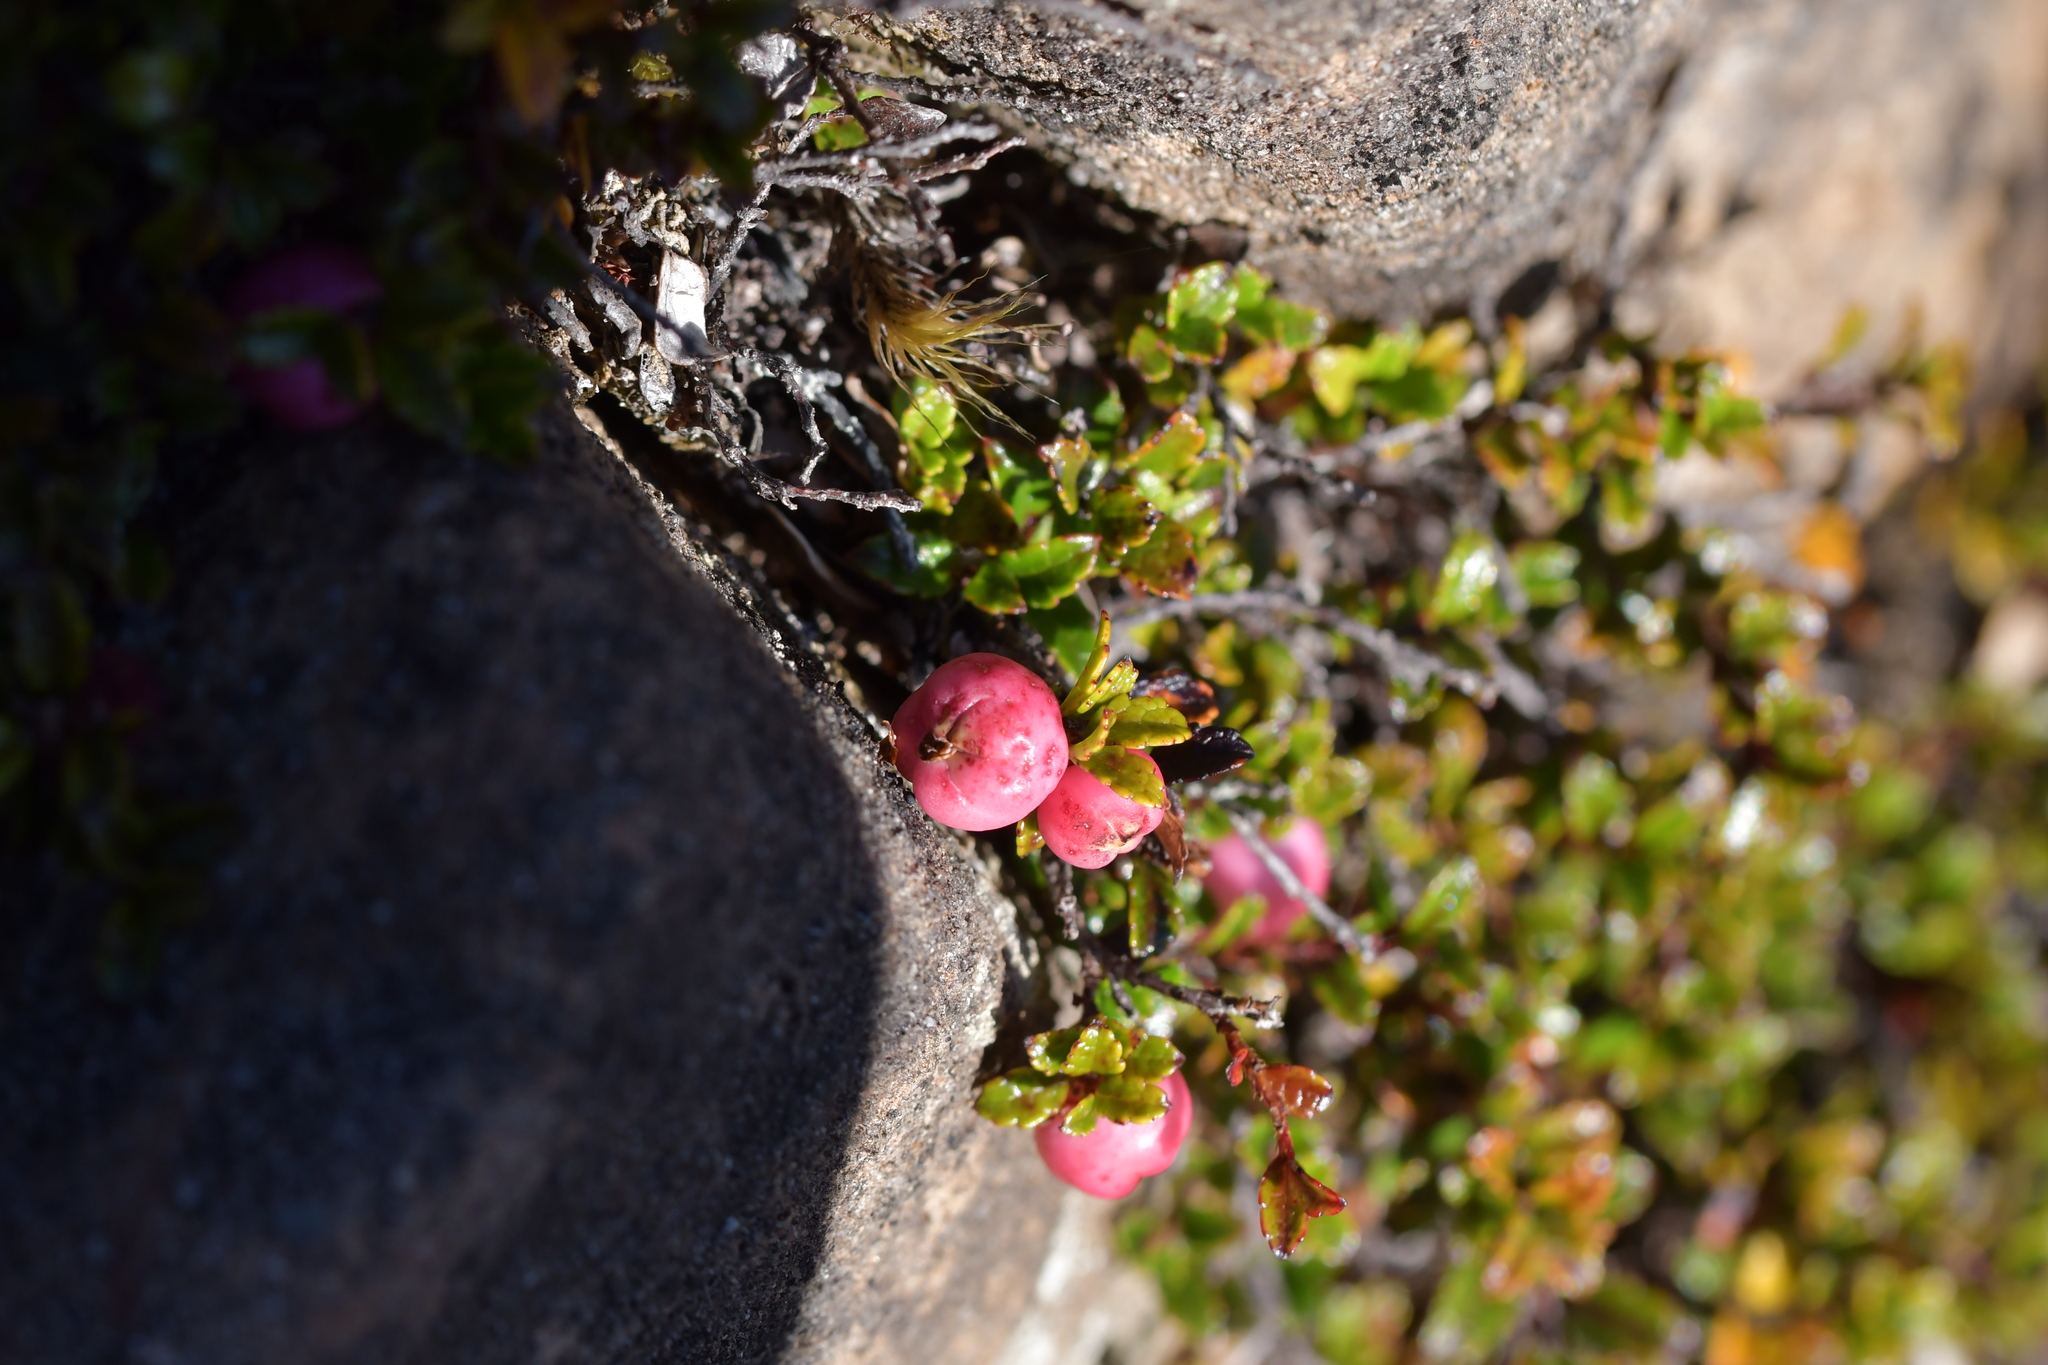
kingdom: Plantae
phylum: Tracheophyta
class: Magnoliopsida
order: Ericales
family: Ericaceae
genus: Gaultheria
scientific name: Gaultheria depressa
